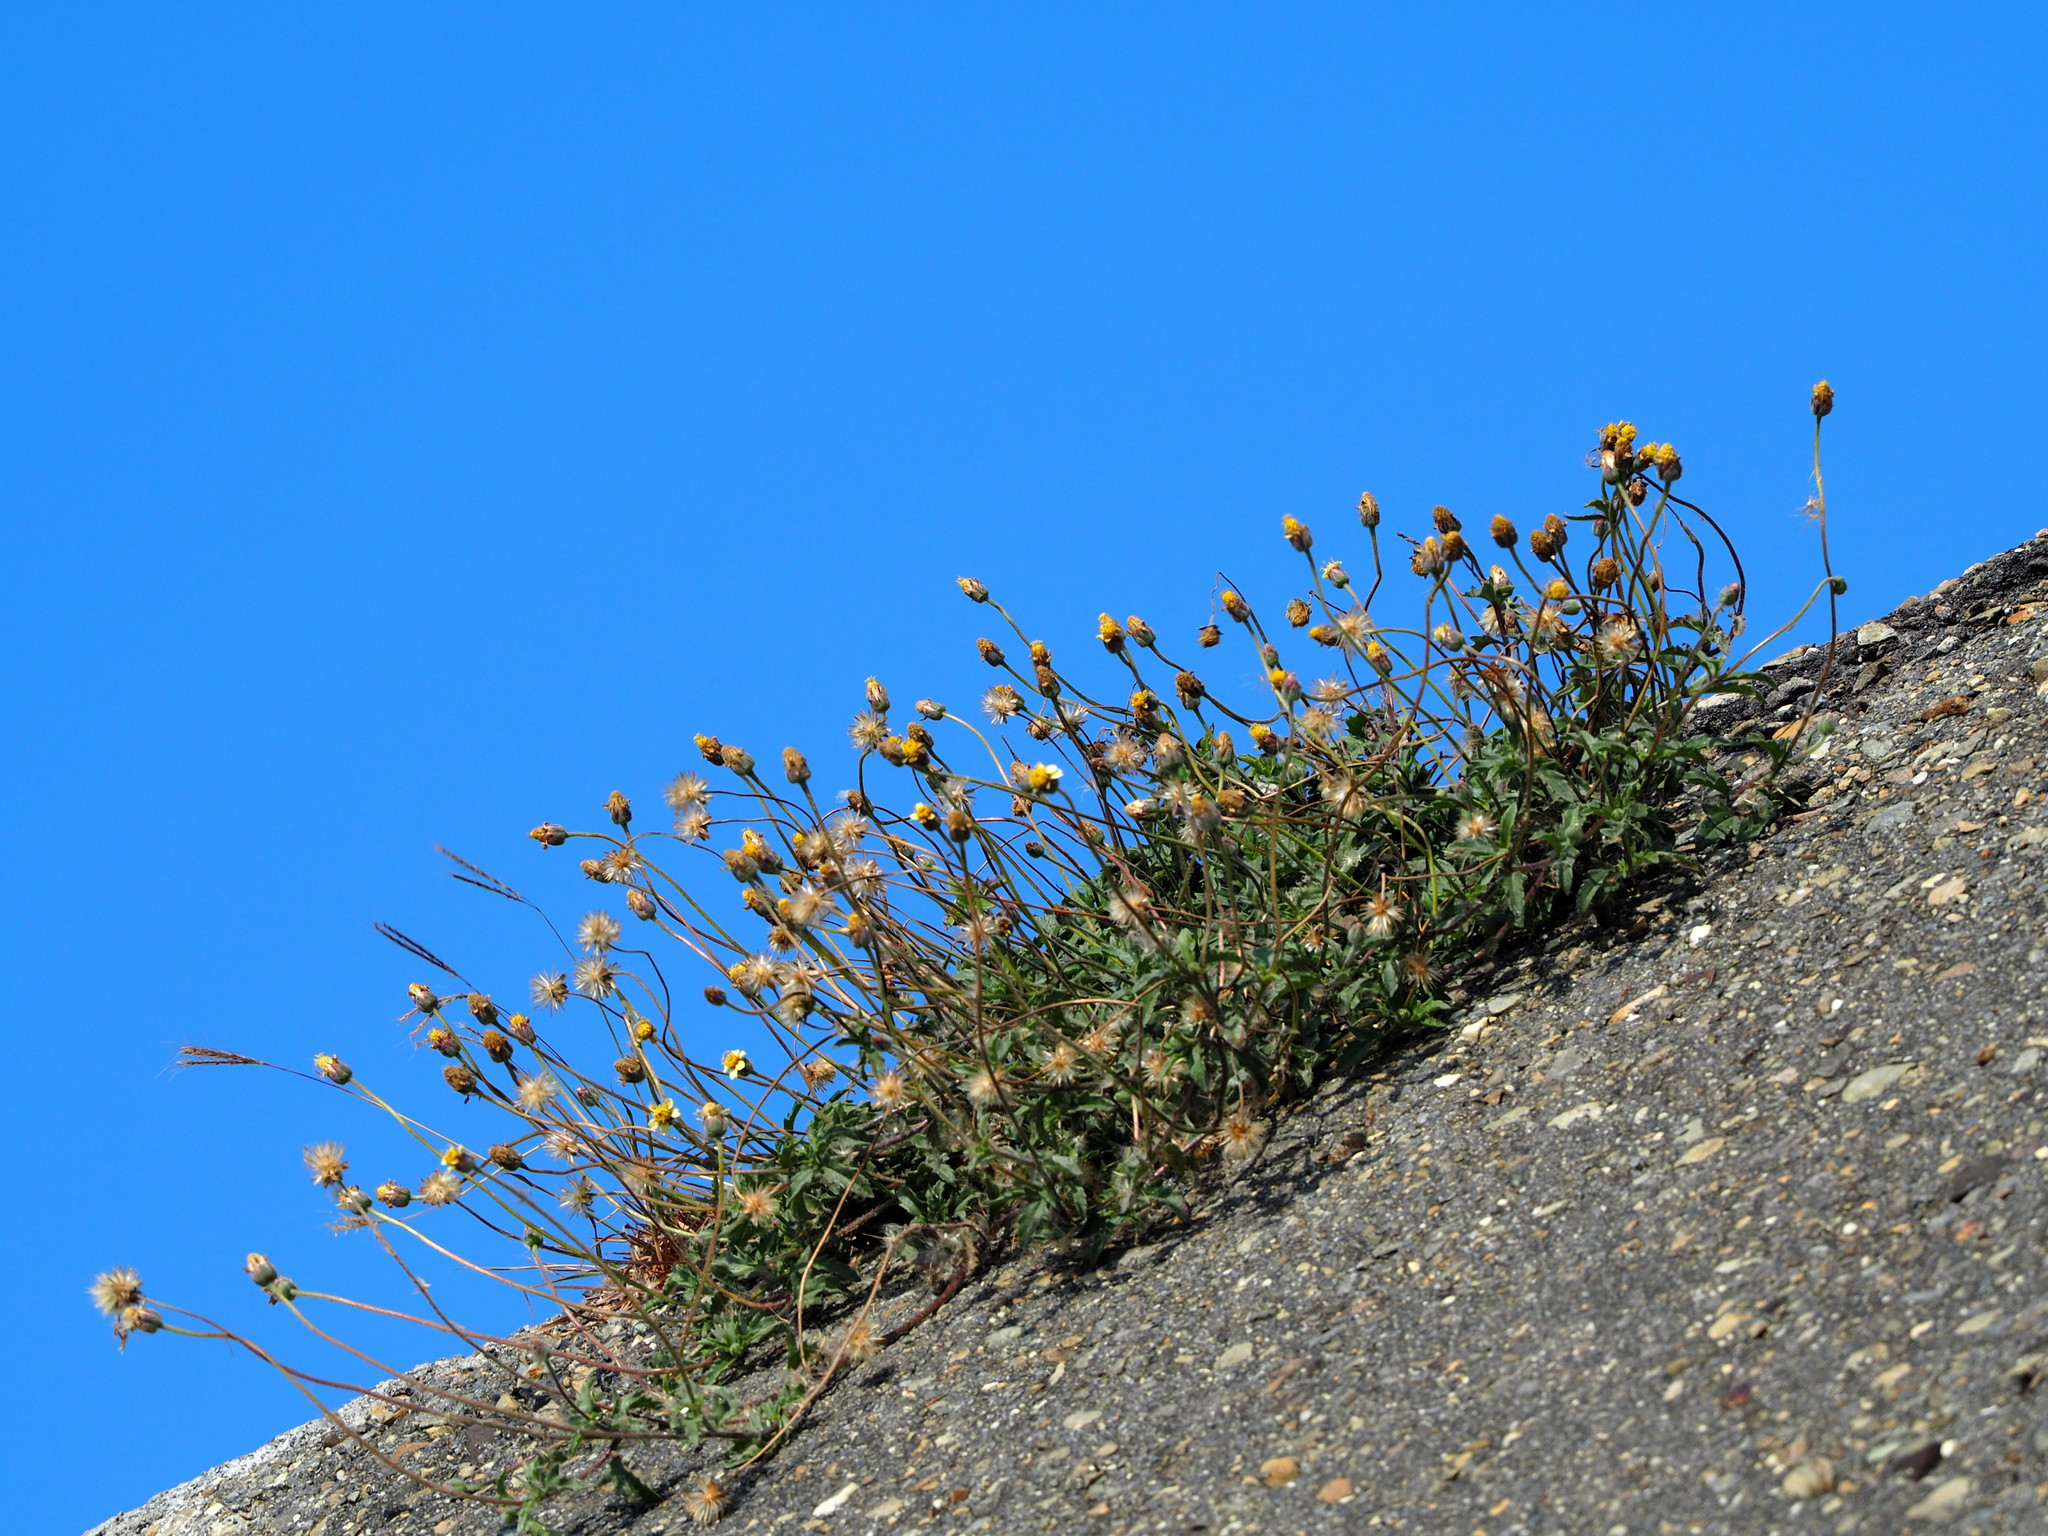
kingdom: Plantae
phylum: Tracheophyta
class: Magnoliopsida
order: Asterales
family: Asteraceae
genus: Tridax
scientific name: Tridax procumbens
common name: Coatbuttons
